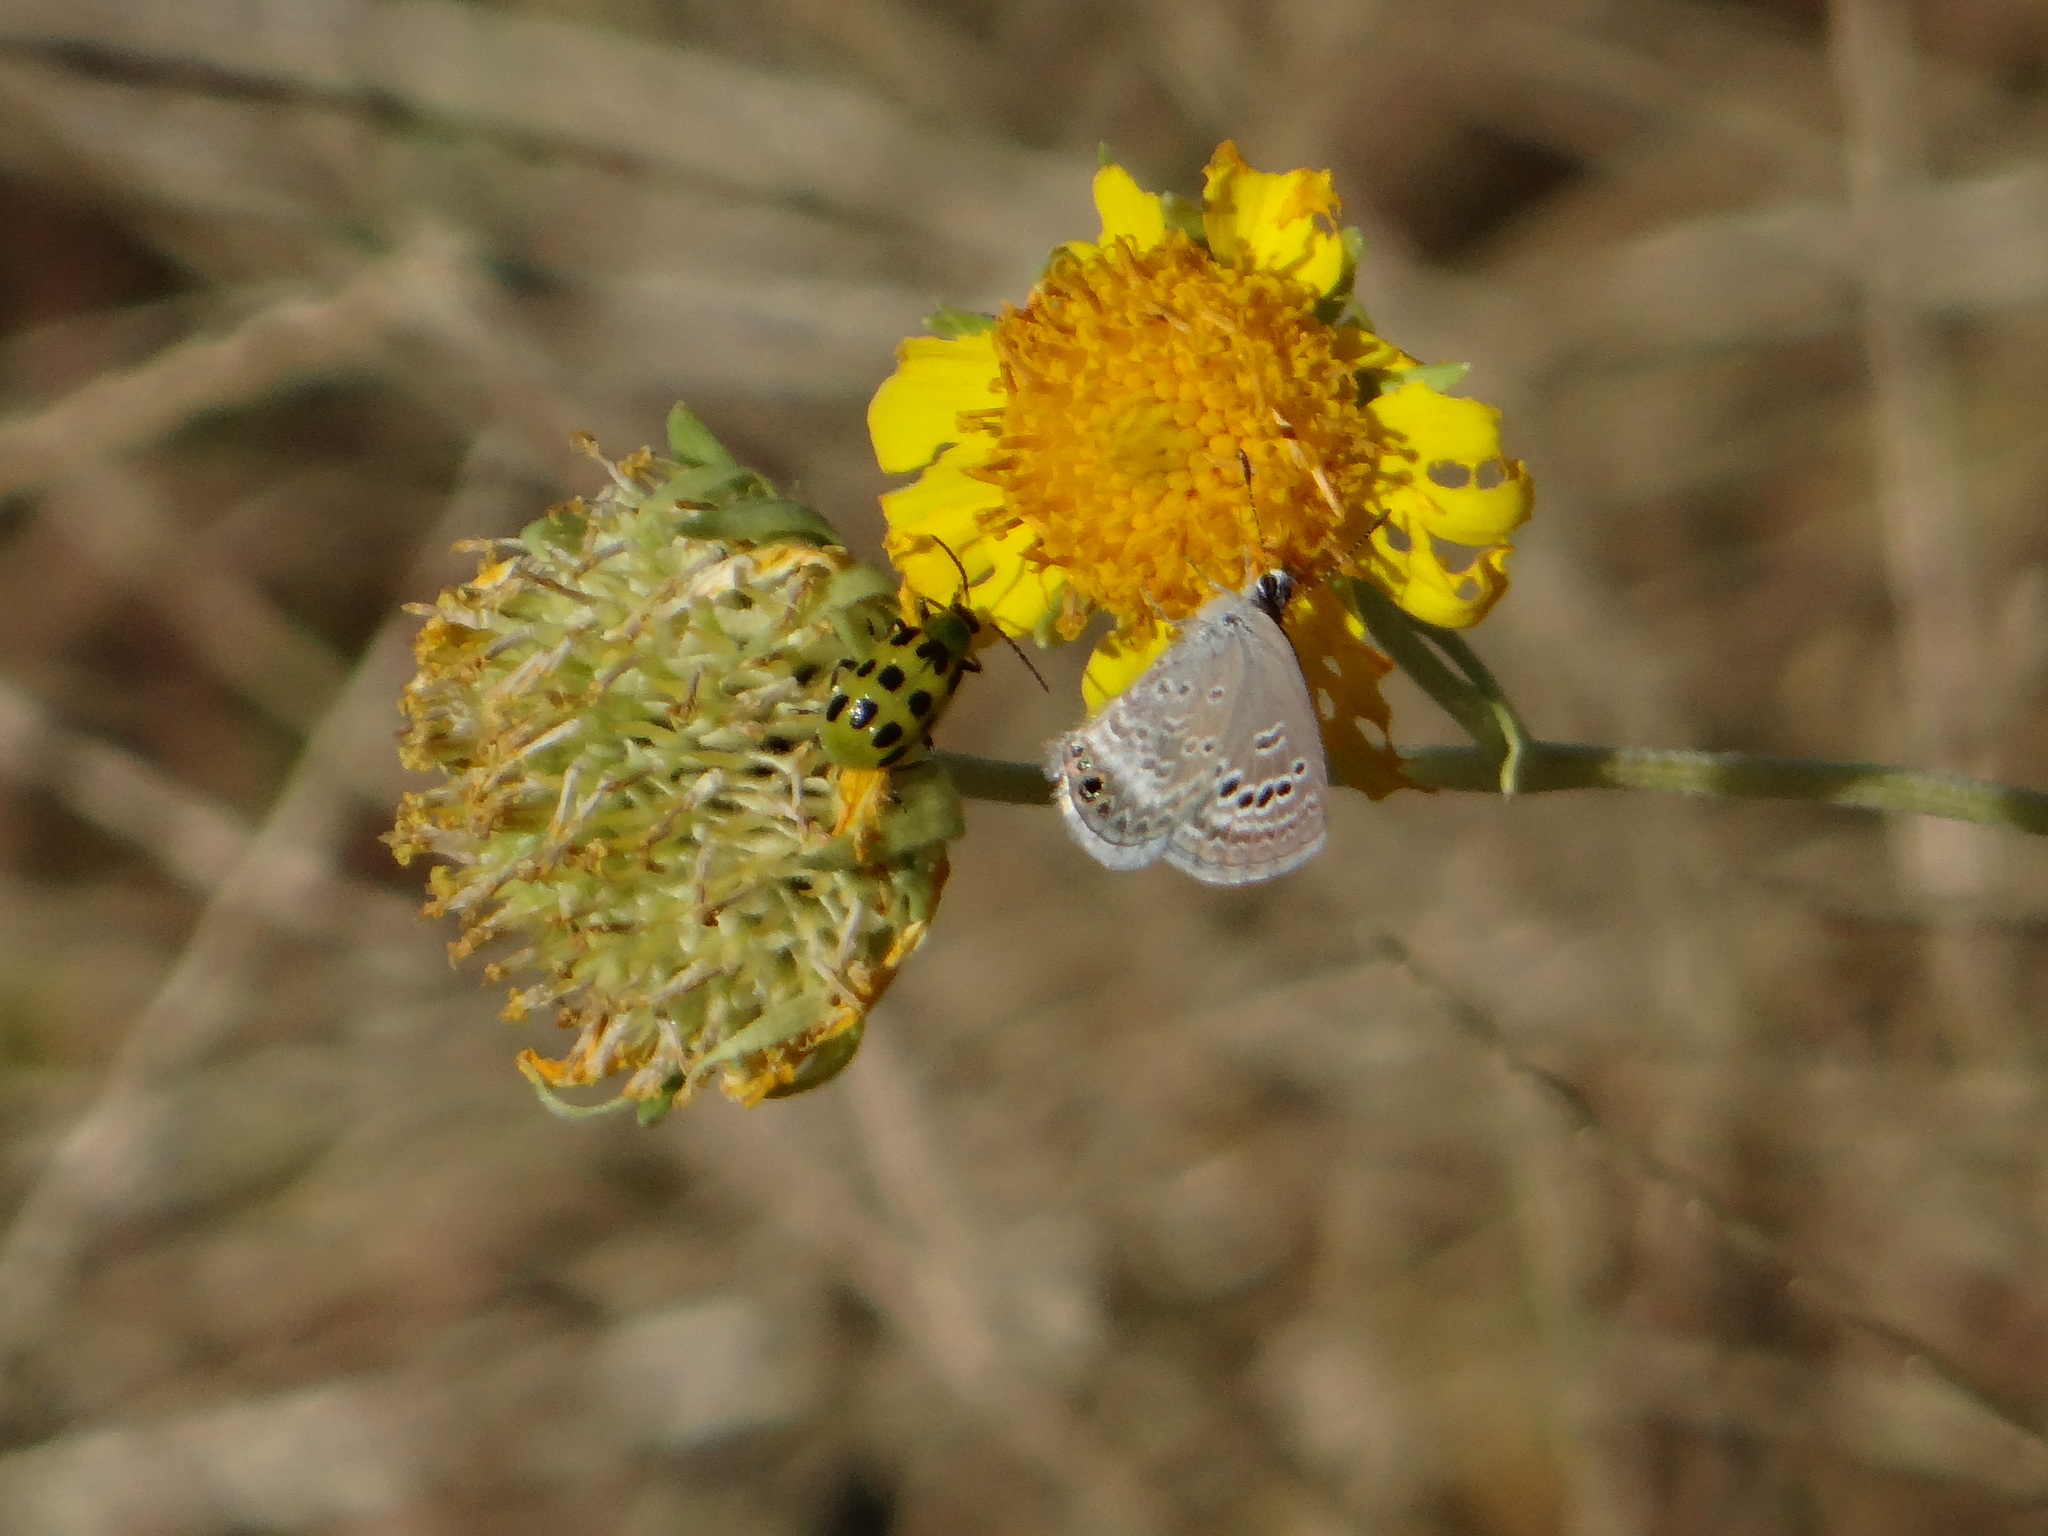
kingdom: Animalia
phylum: Arthropoda
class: Insecta
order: Lepidoptera
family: Lycaenidae
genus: Echinargus
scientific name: Echinargus isola
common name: Reakirt's blue
